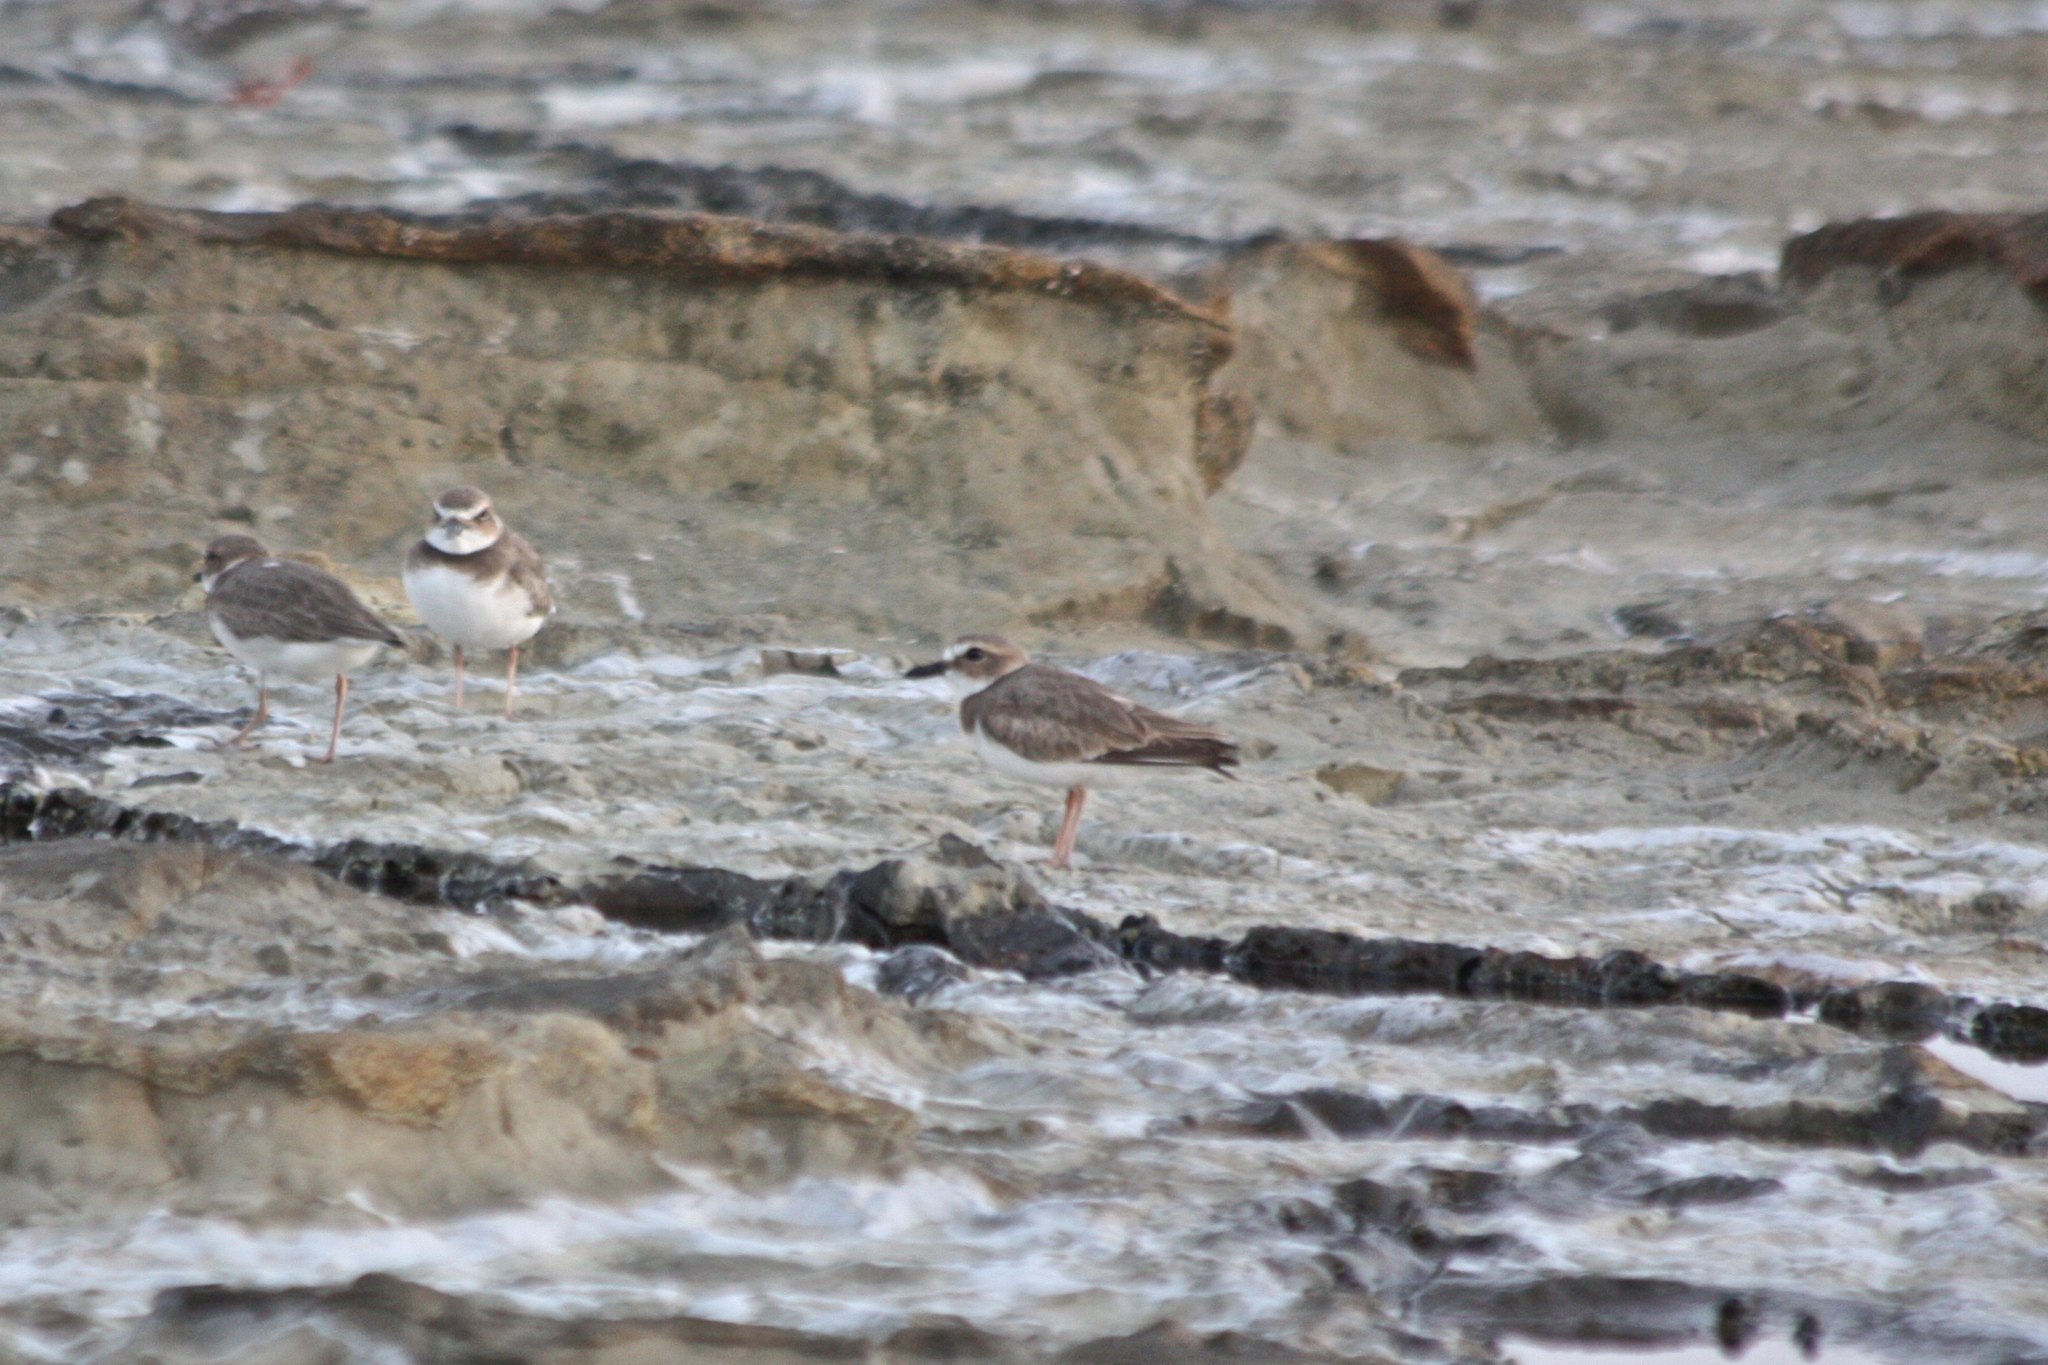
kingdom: Animalia
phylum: Chordata
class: Aves
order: Charadriiformes
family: Charadriidae
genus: Anarhynchus
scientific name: Anarhynchus
